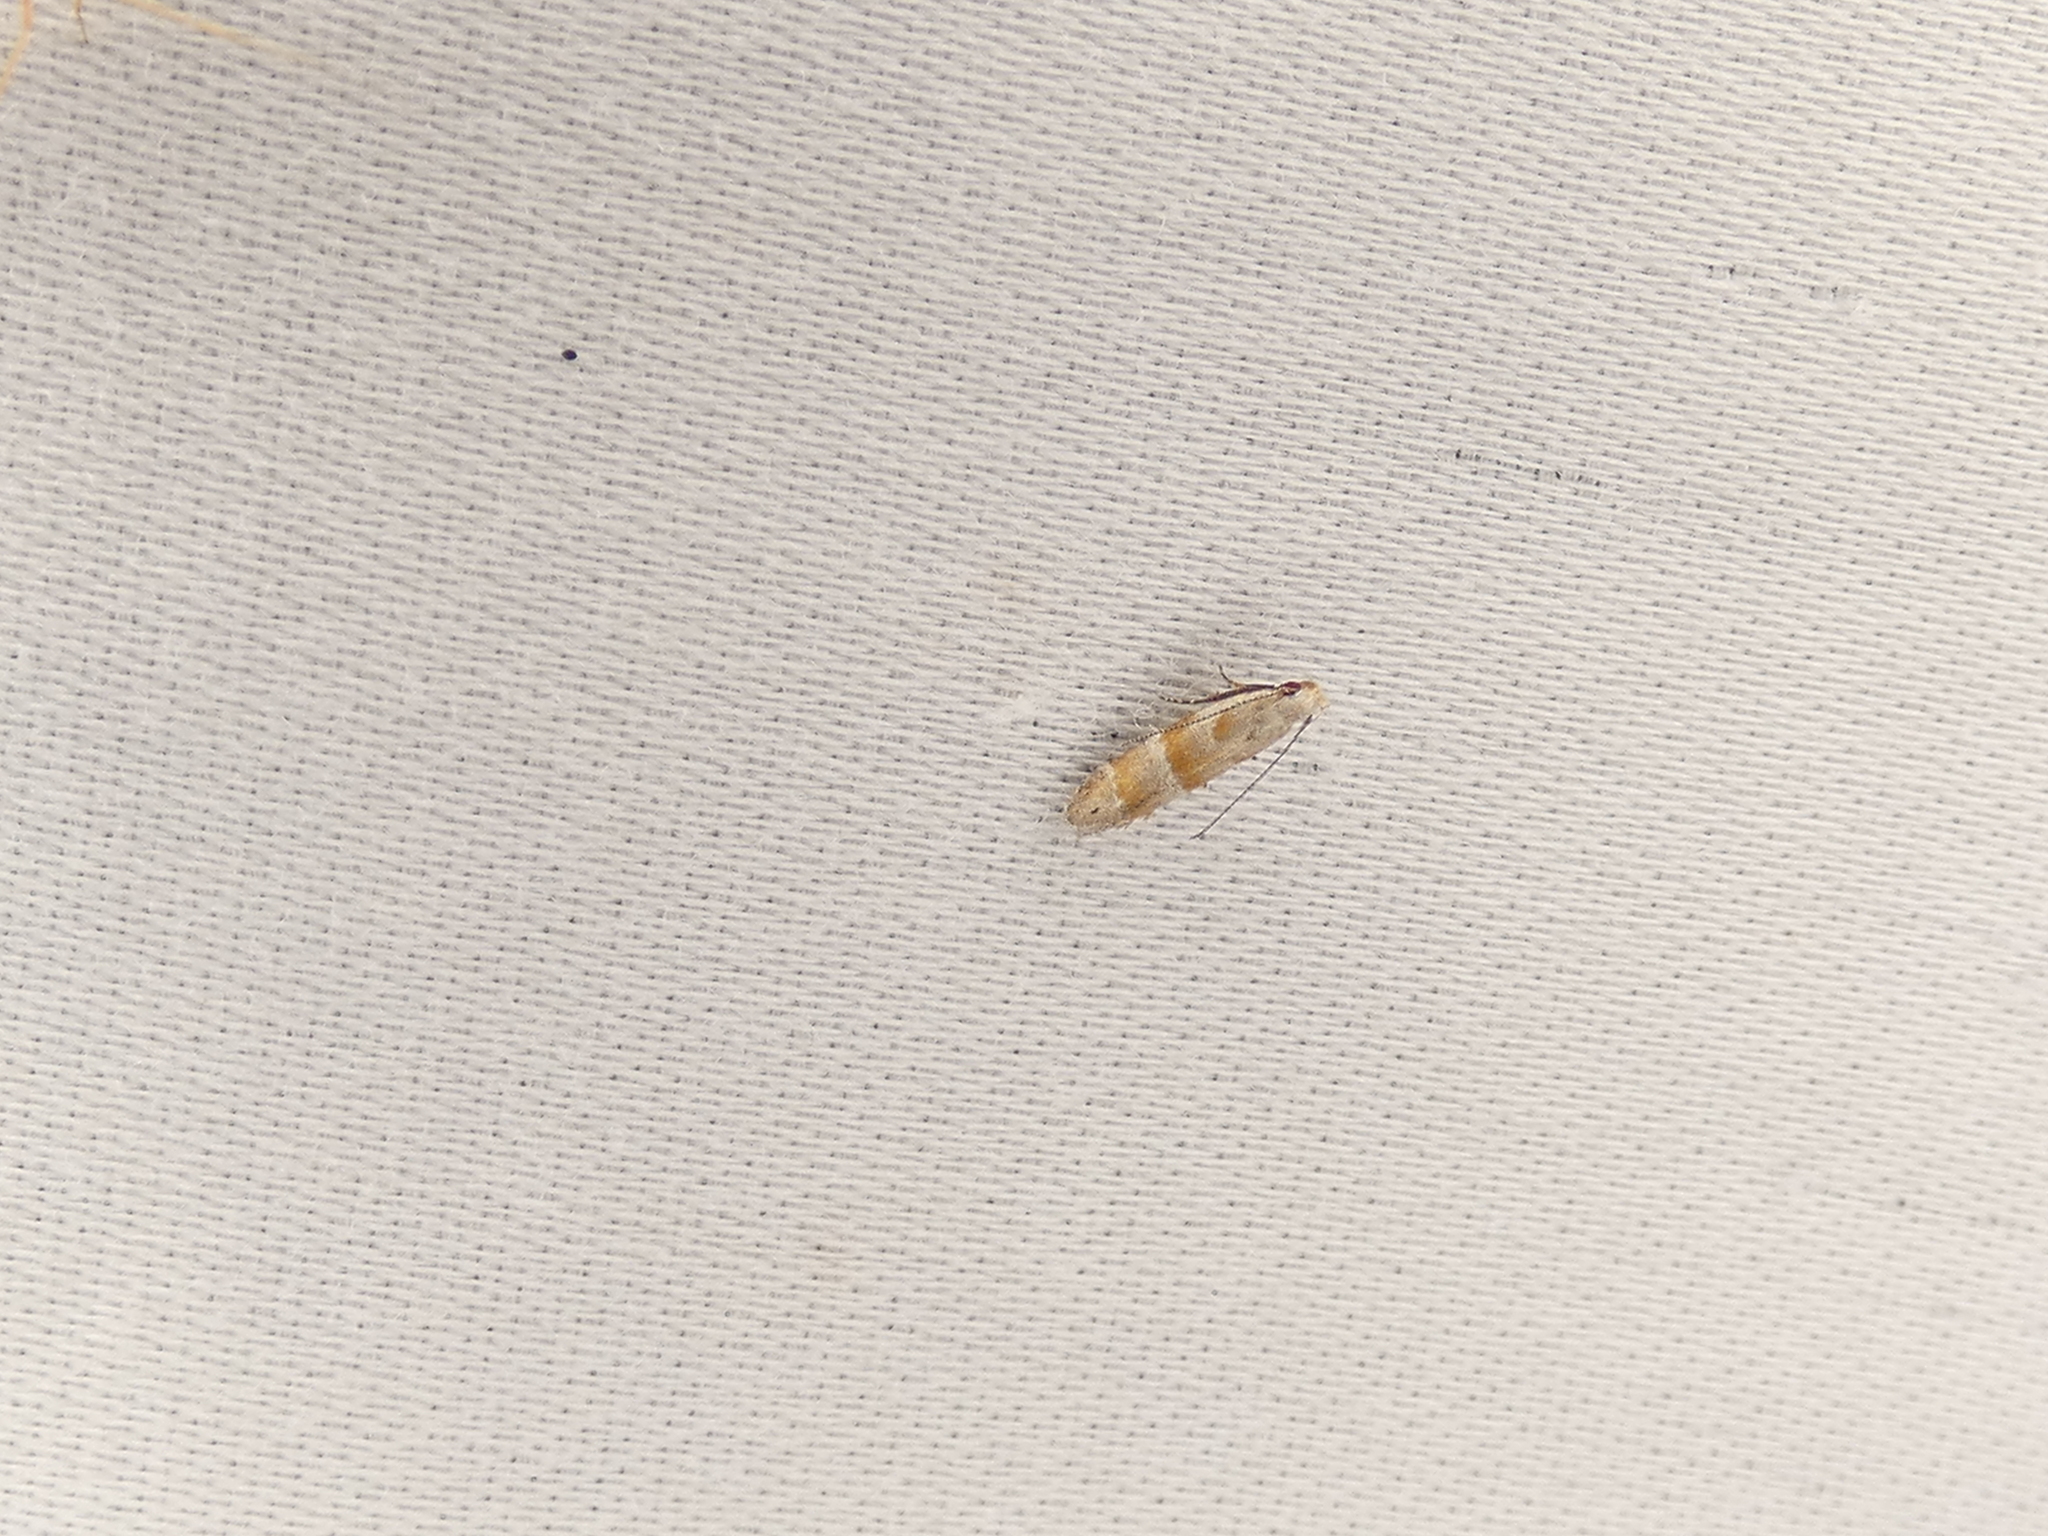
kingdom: Animalia
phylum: Arthropoda
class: Insecta
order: Lepidoptera
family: Gelechiidae
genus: Battaristis
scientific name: Battaristis vittella
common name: Orange stripe-backed moth
